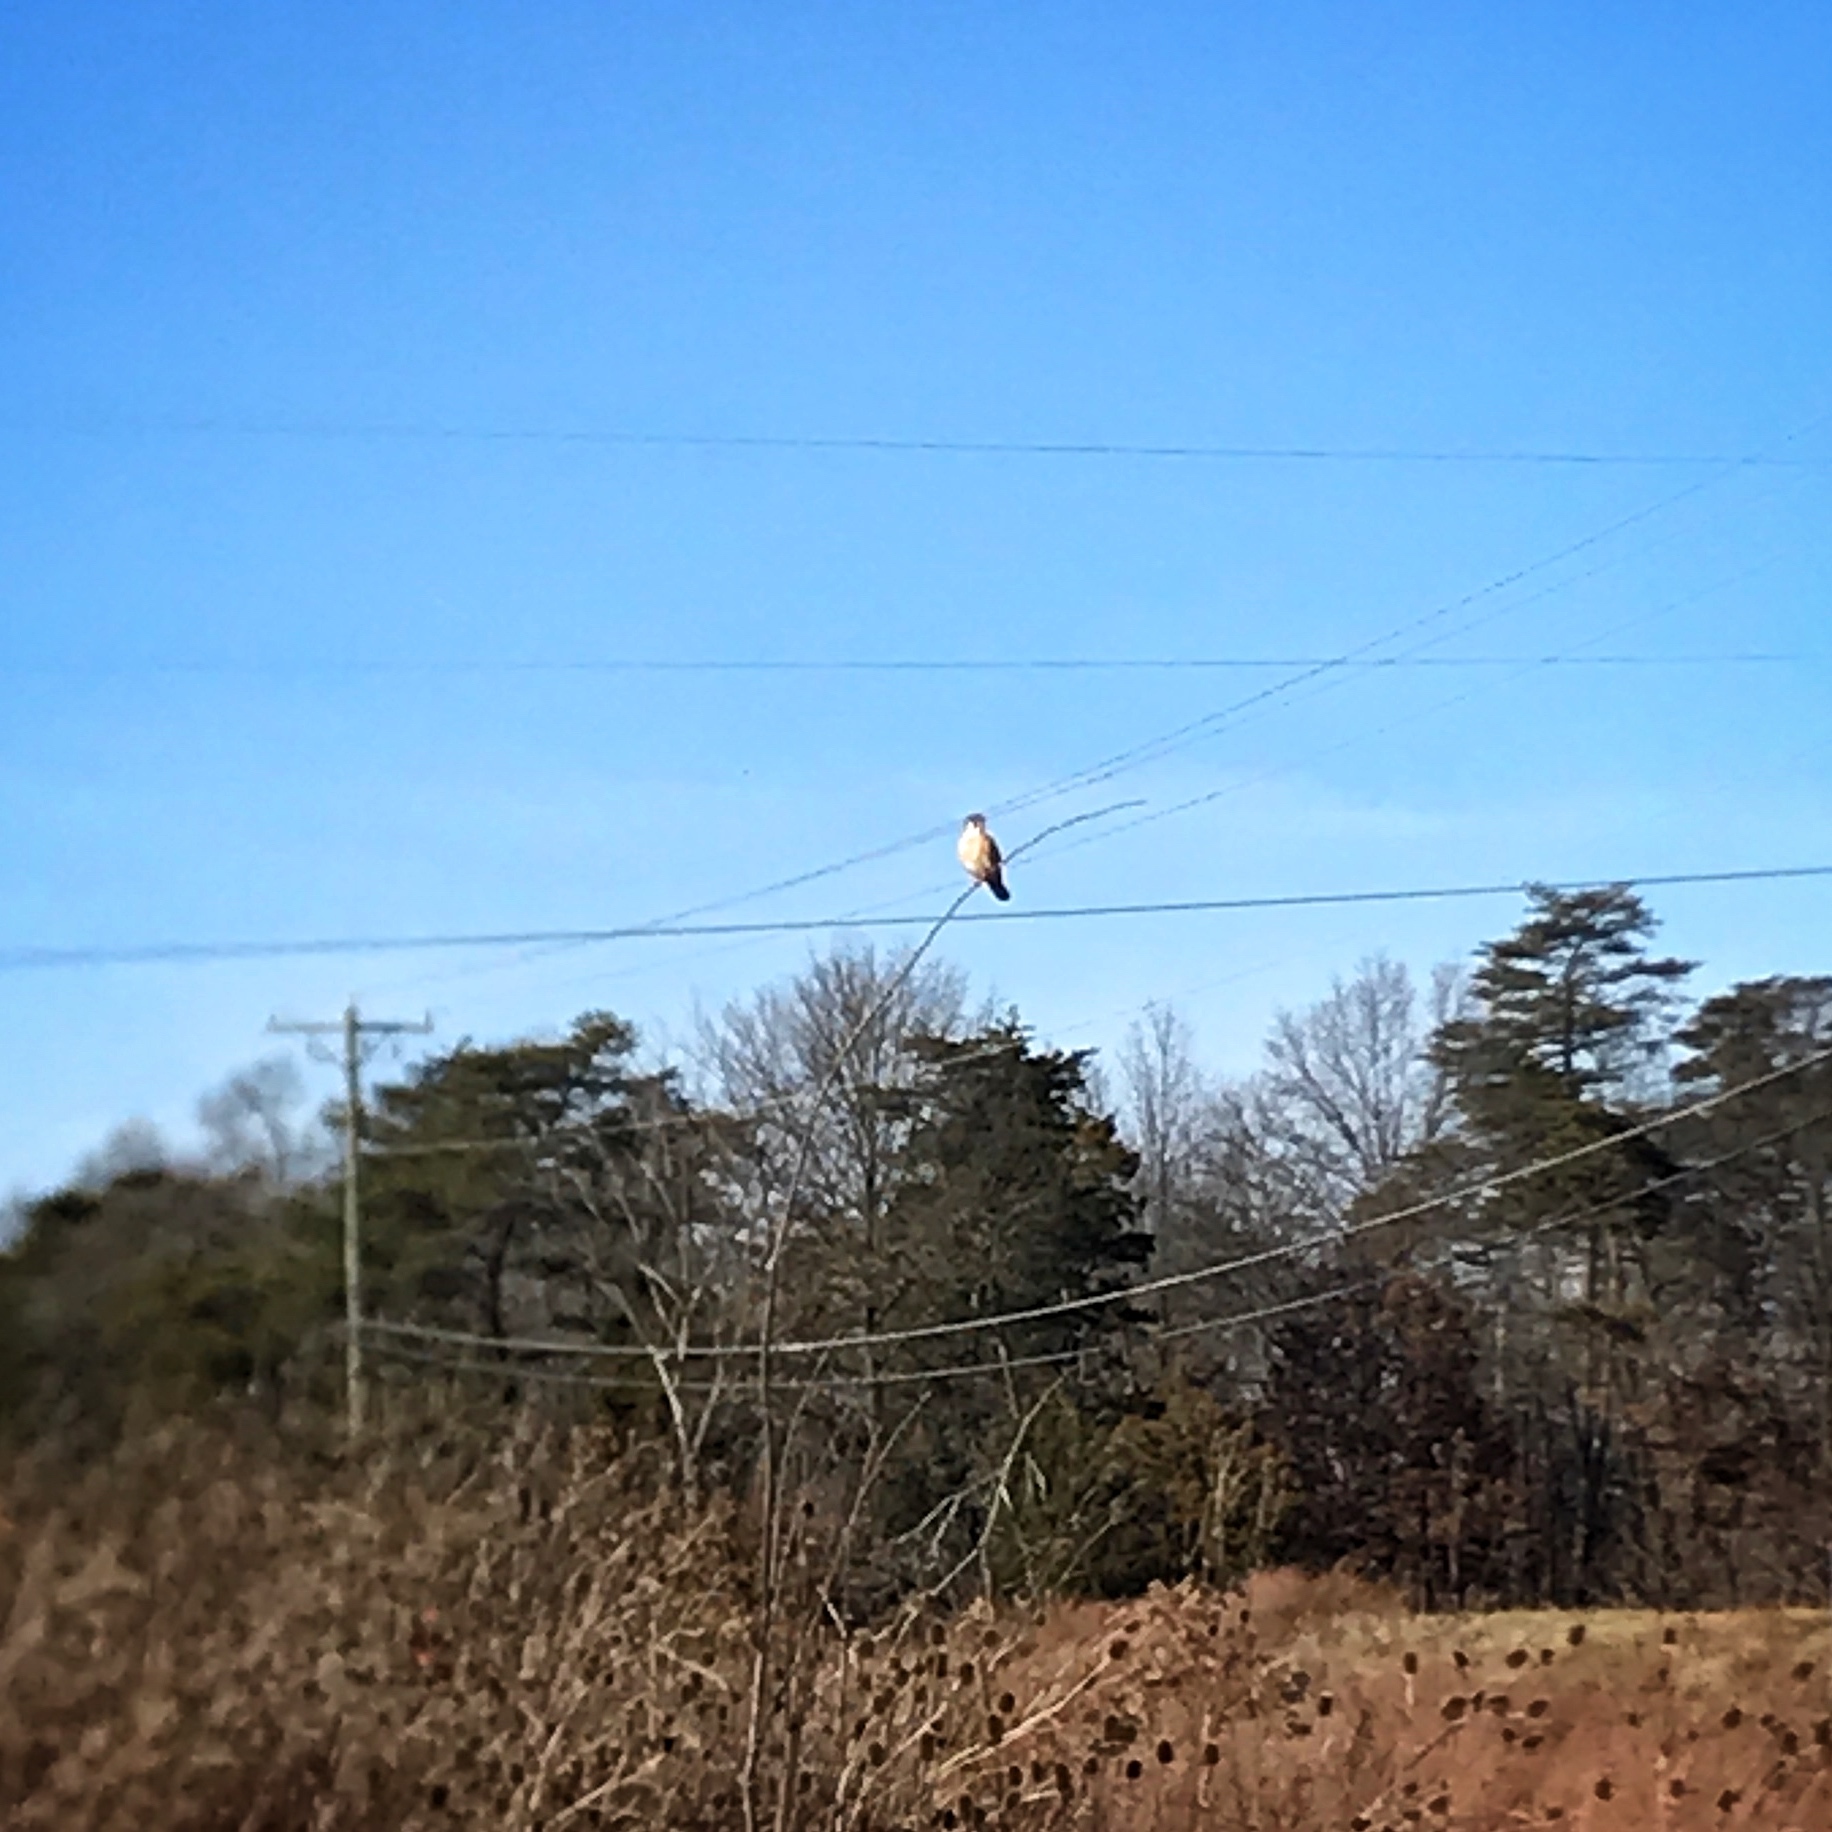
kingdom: Animalia
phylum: Chordata
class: Aves
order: Falconiformes
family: Falconidae
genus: Falco
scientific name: Falco sparverius
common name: American kestrel
